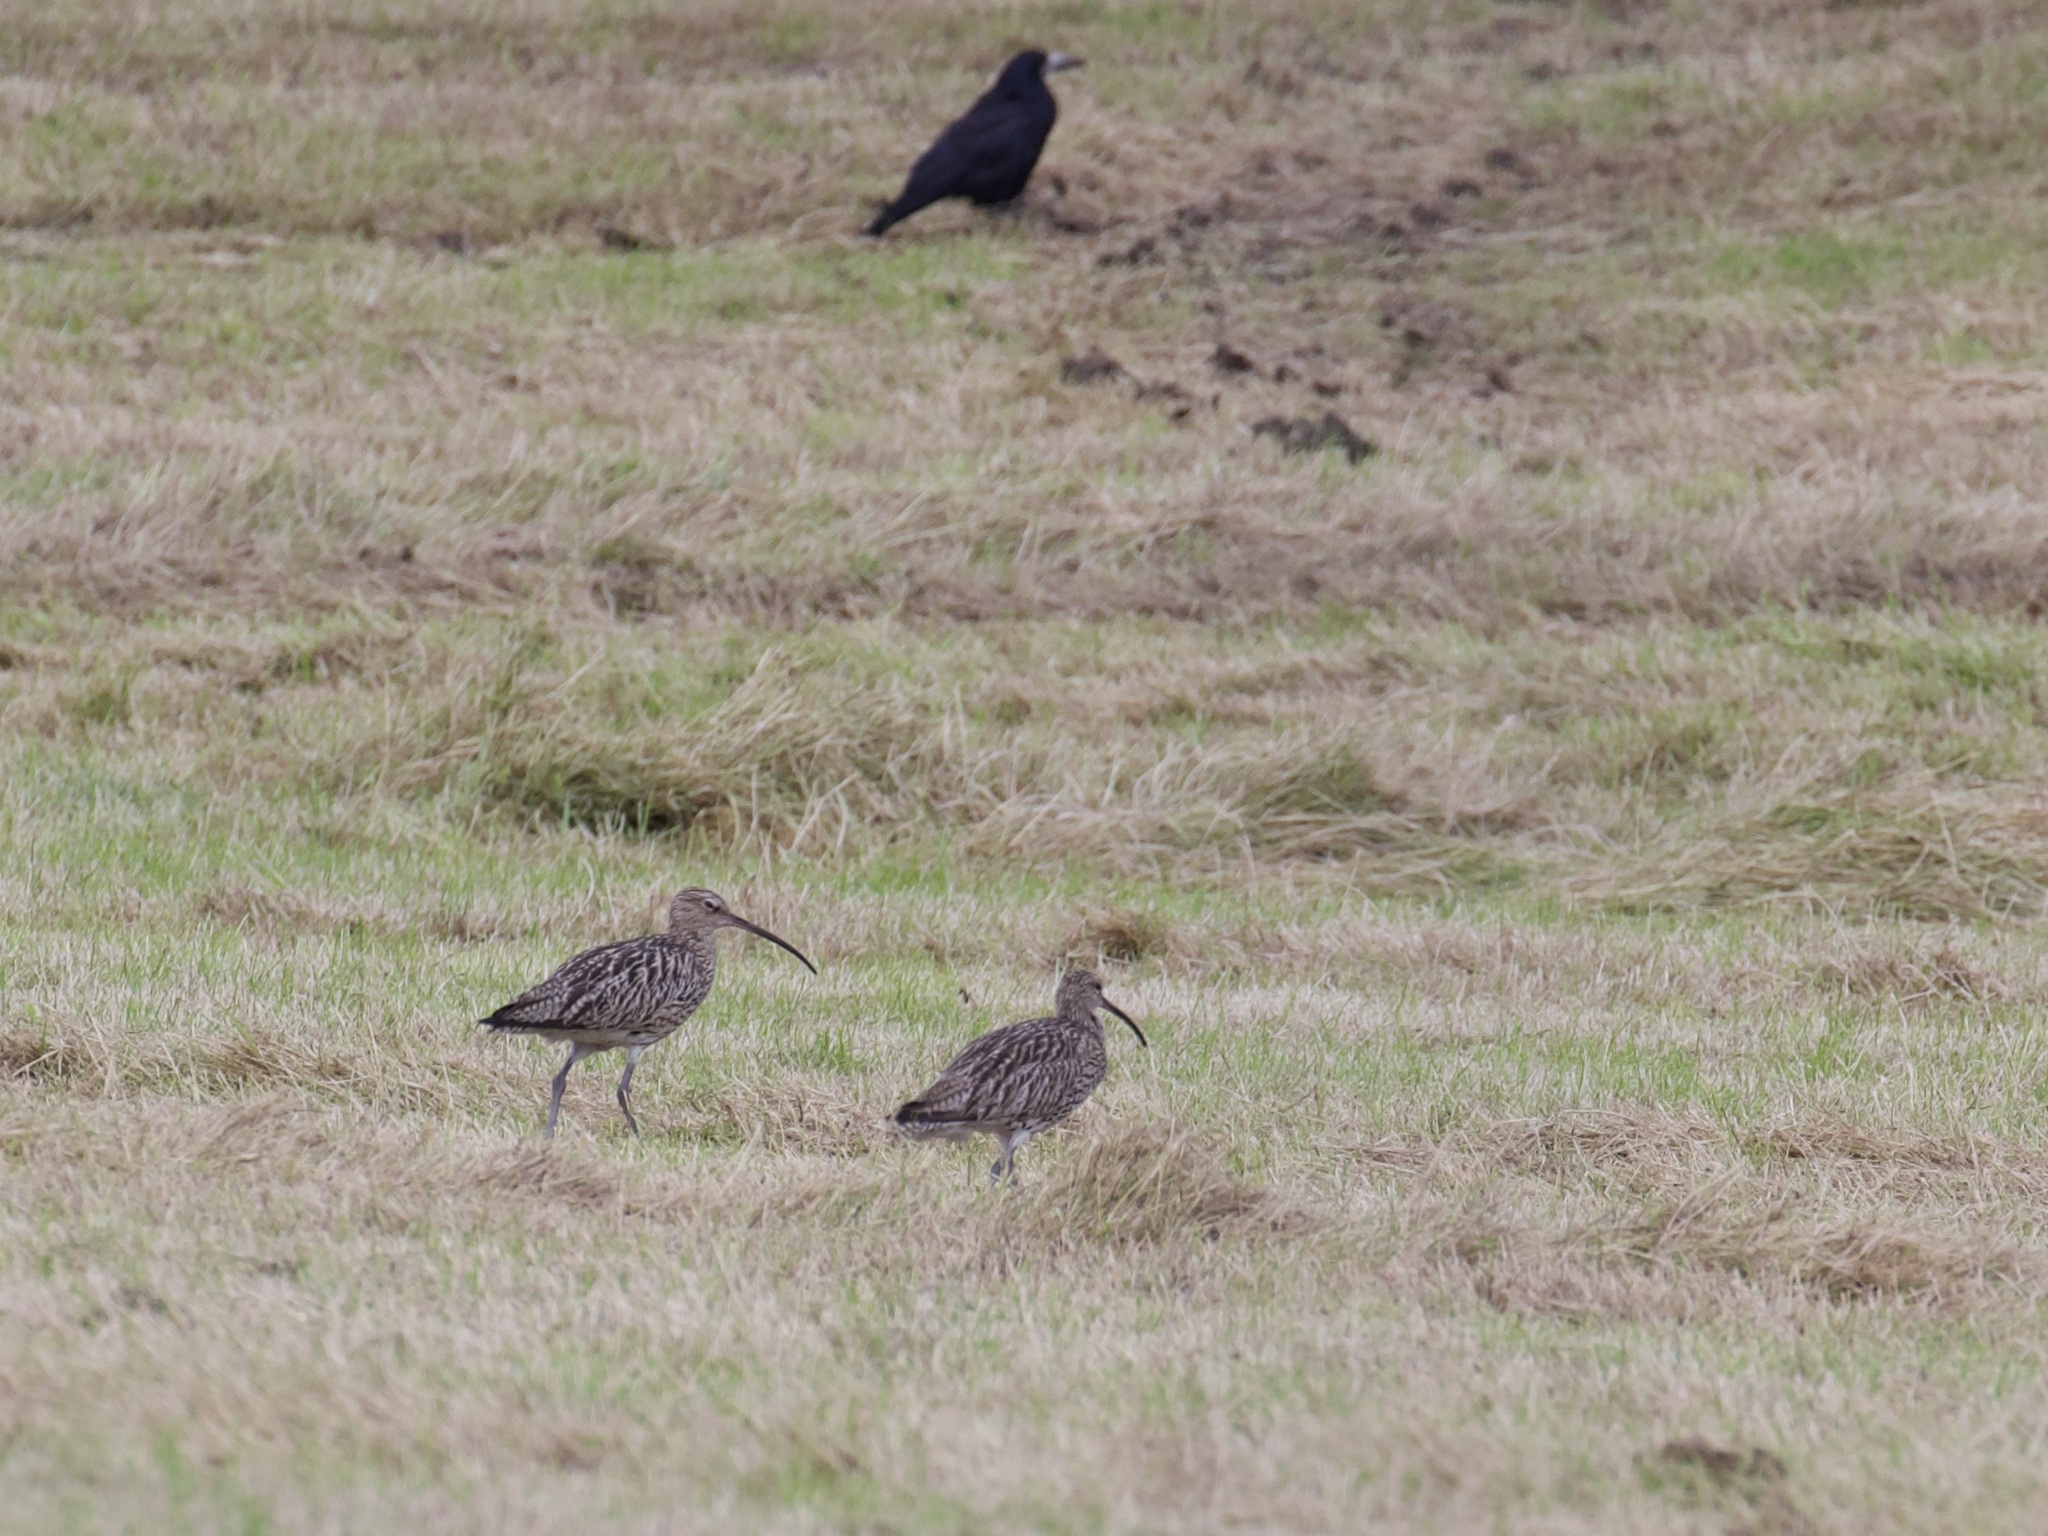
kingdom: Animalia
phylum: Chordata
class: Aves
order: Charadriiformes
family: Scolopacidae
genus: Numenius
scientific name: Numenius arquata
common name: Eurasian curlew
